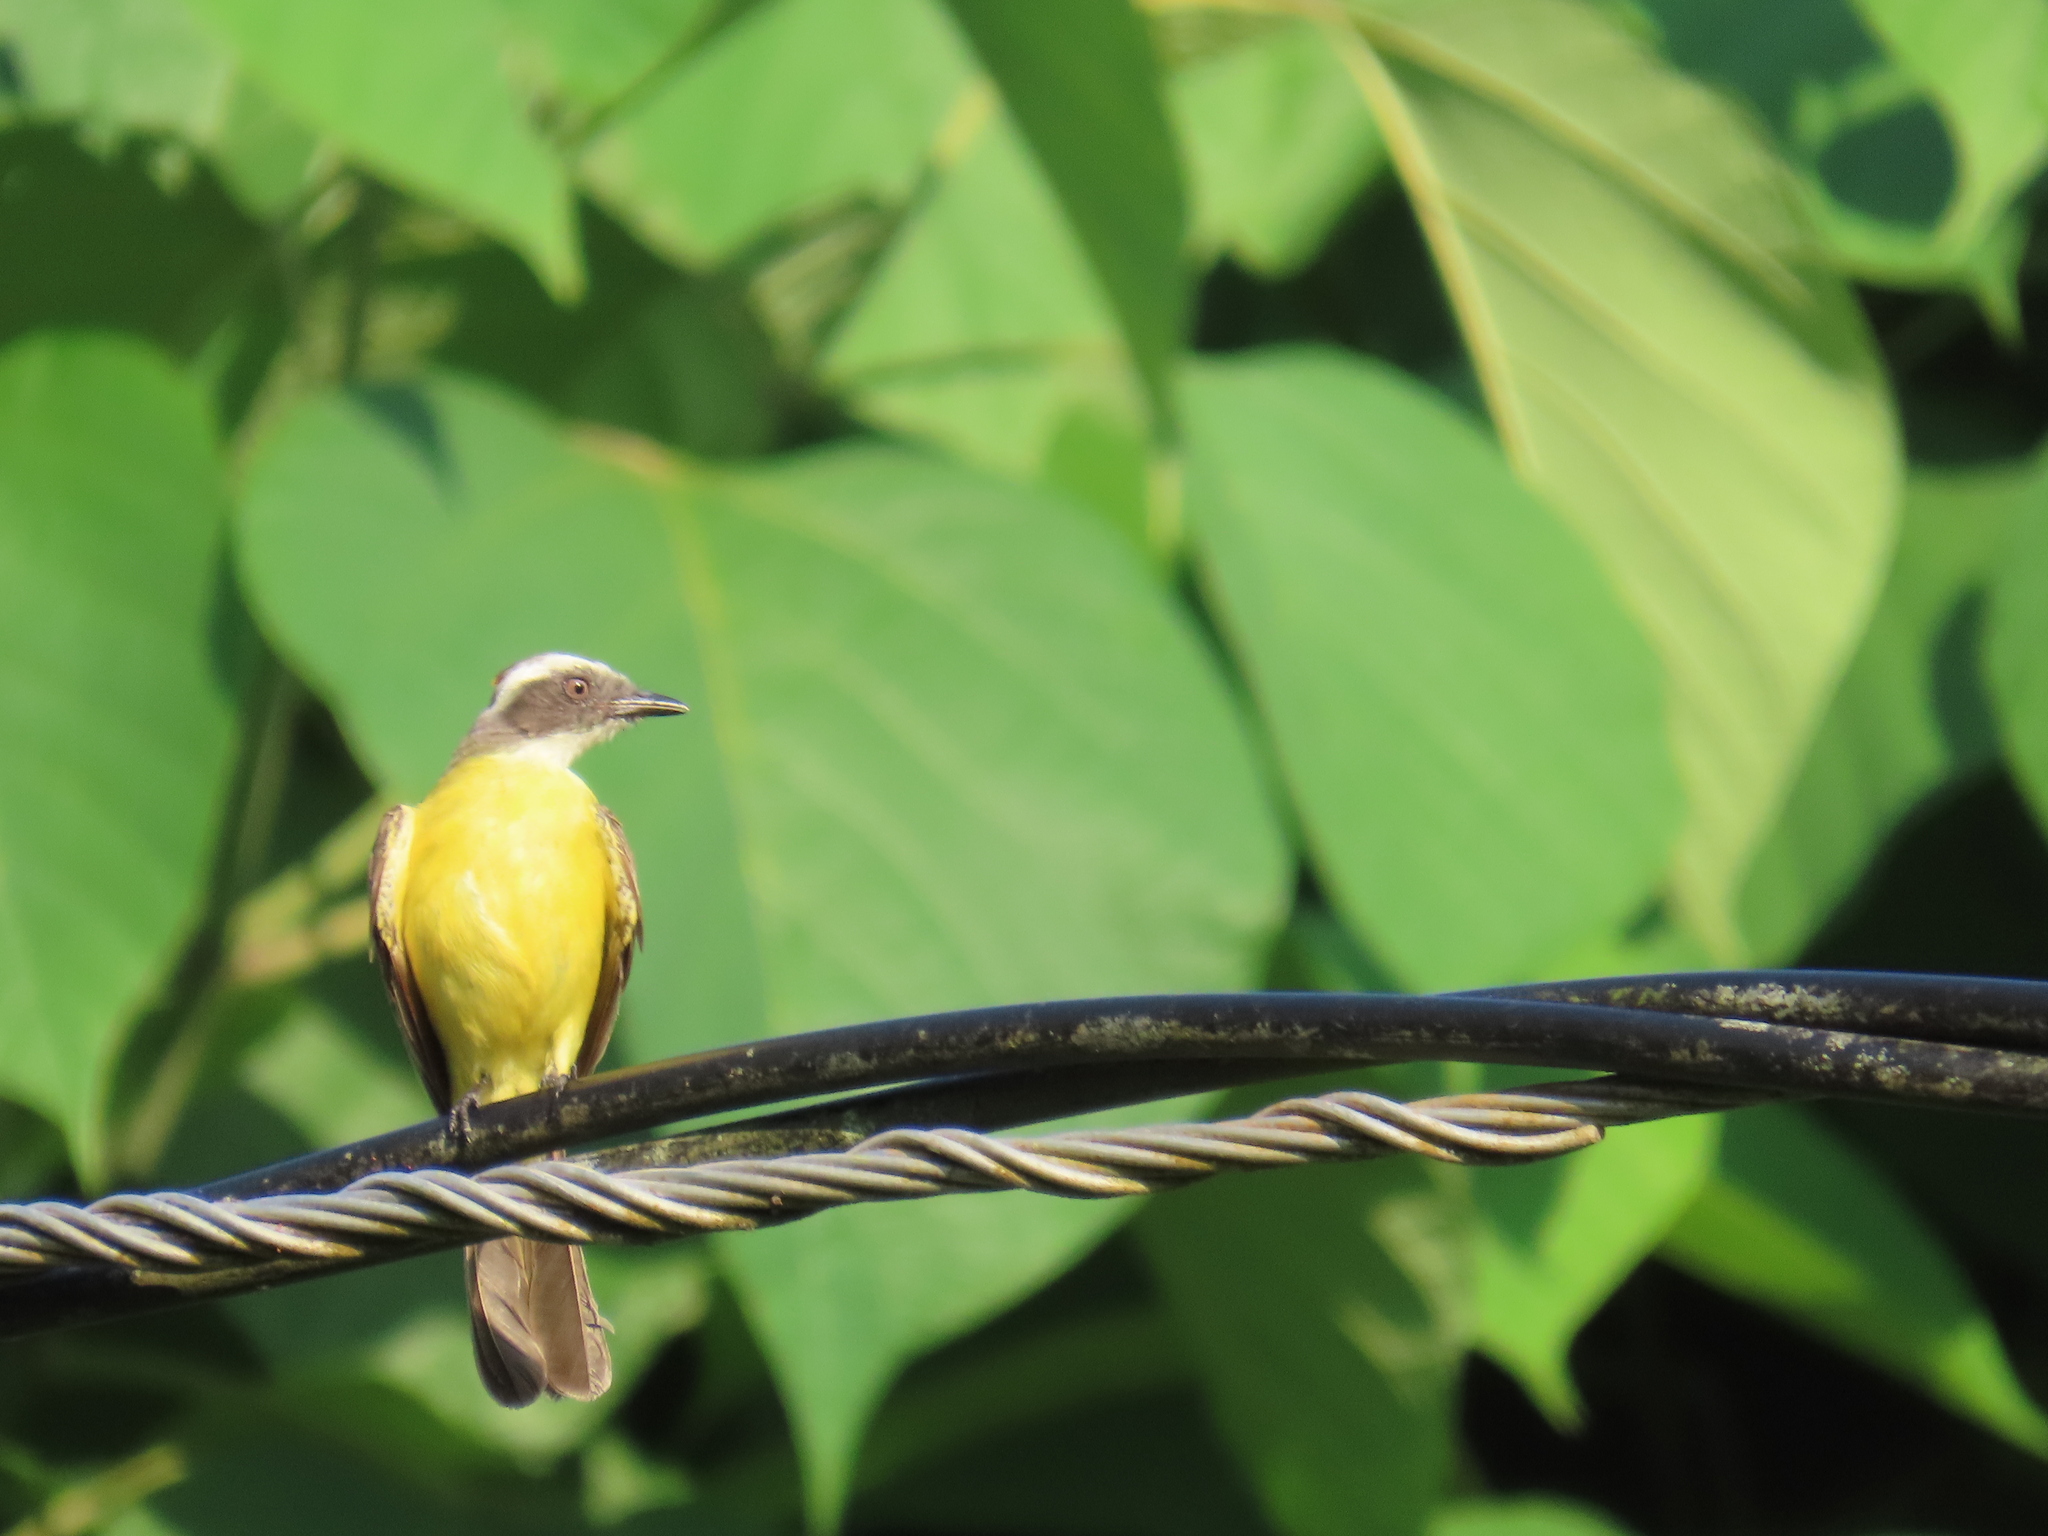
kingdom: Animalia
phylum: Chordata
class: Aves
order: Passeriformes
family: Tyrannidae
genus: Myiozetetes
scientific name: Myiozetetes similis
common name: Social flycatcher
